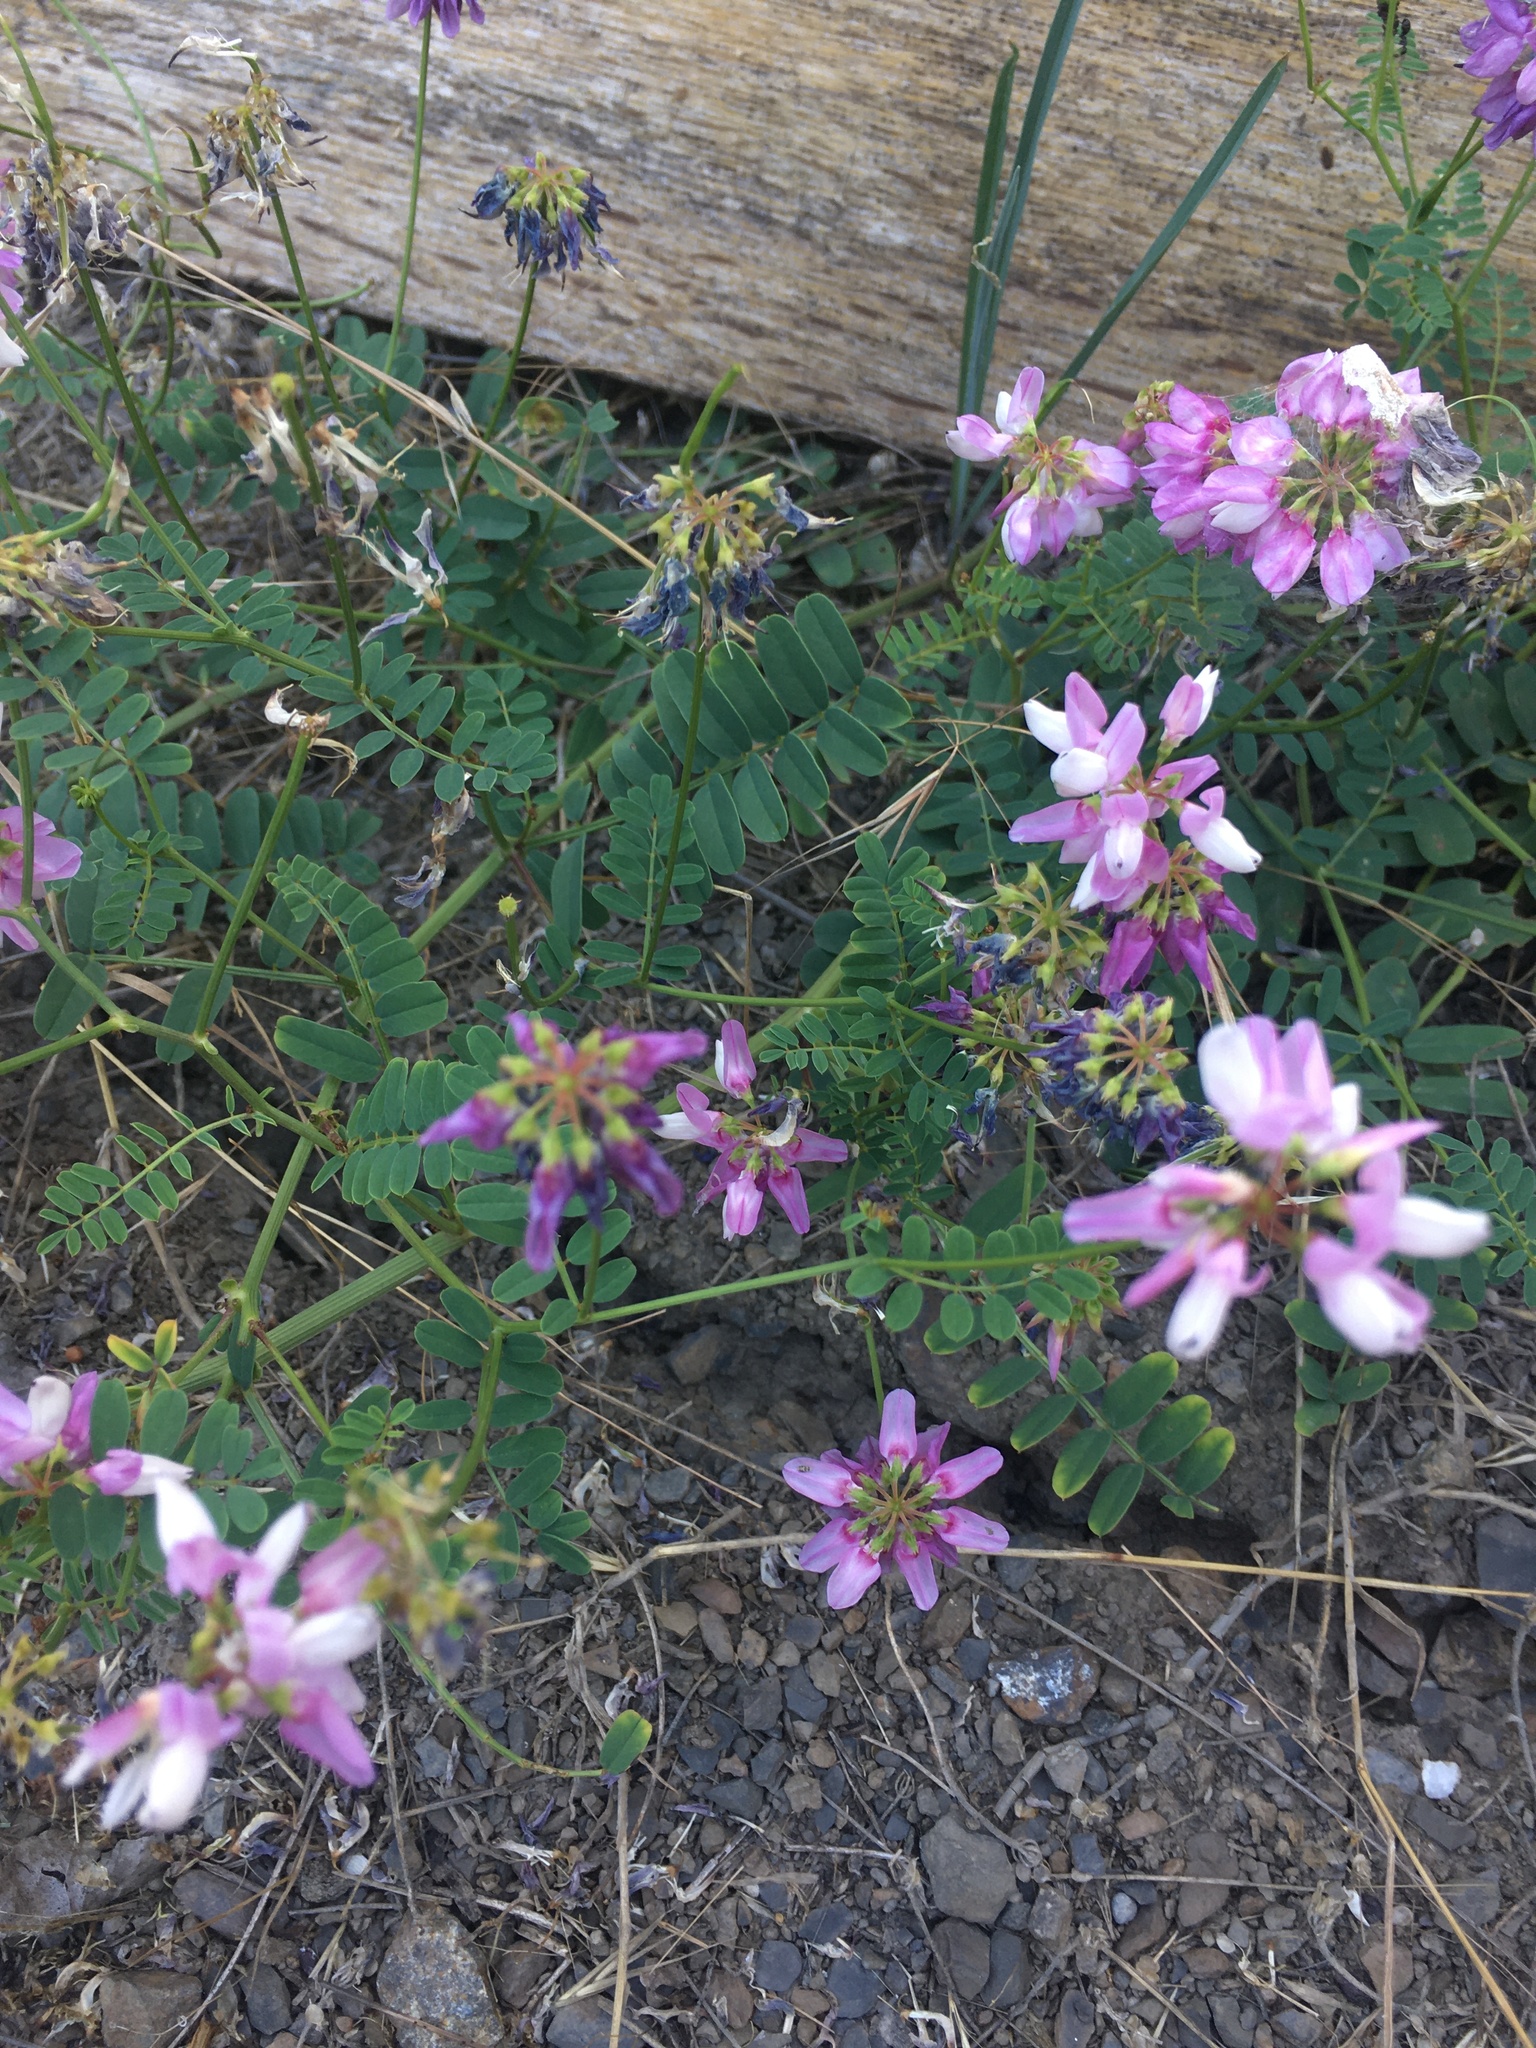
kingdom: Plantae
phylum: Tracheophyta
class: Magnoliopsida
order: Fabales
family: Fabaceae
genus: Coronilla
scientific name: Coronilla varia
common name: Crownvetch
